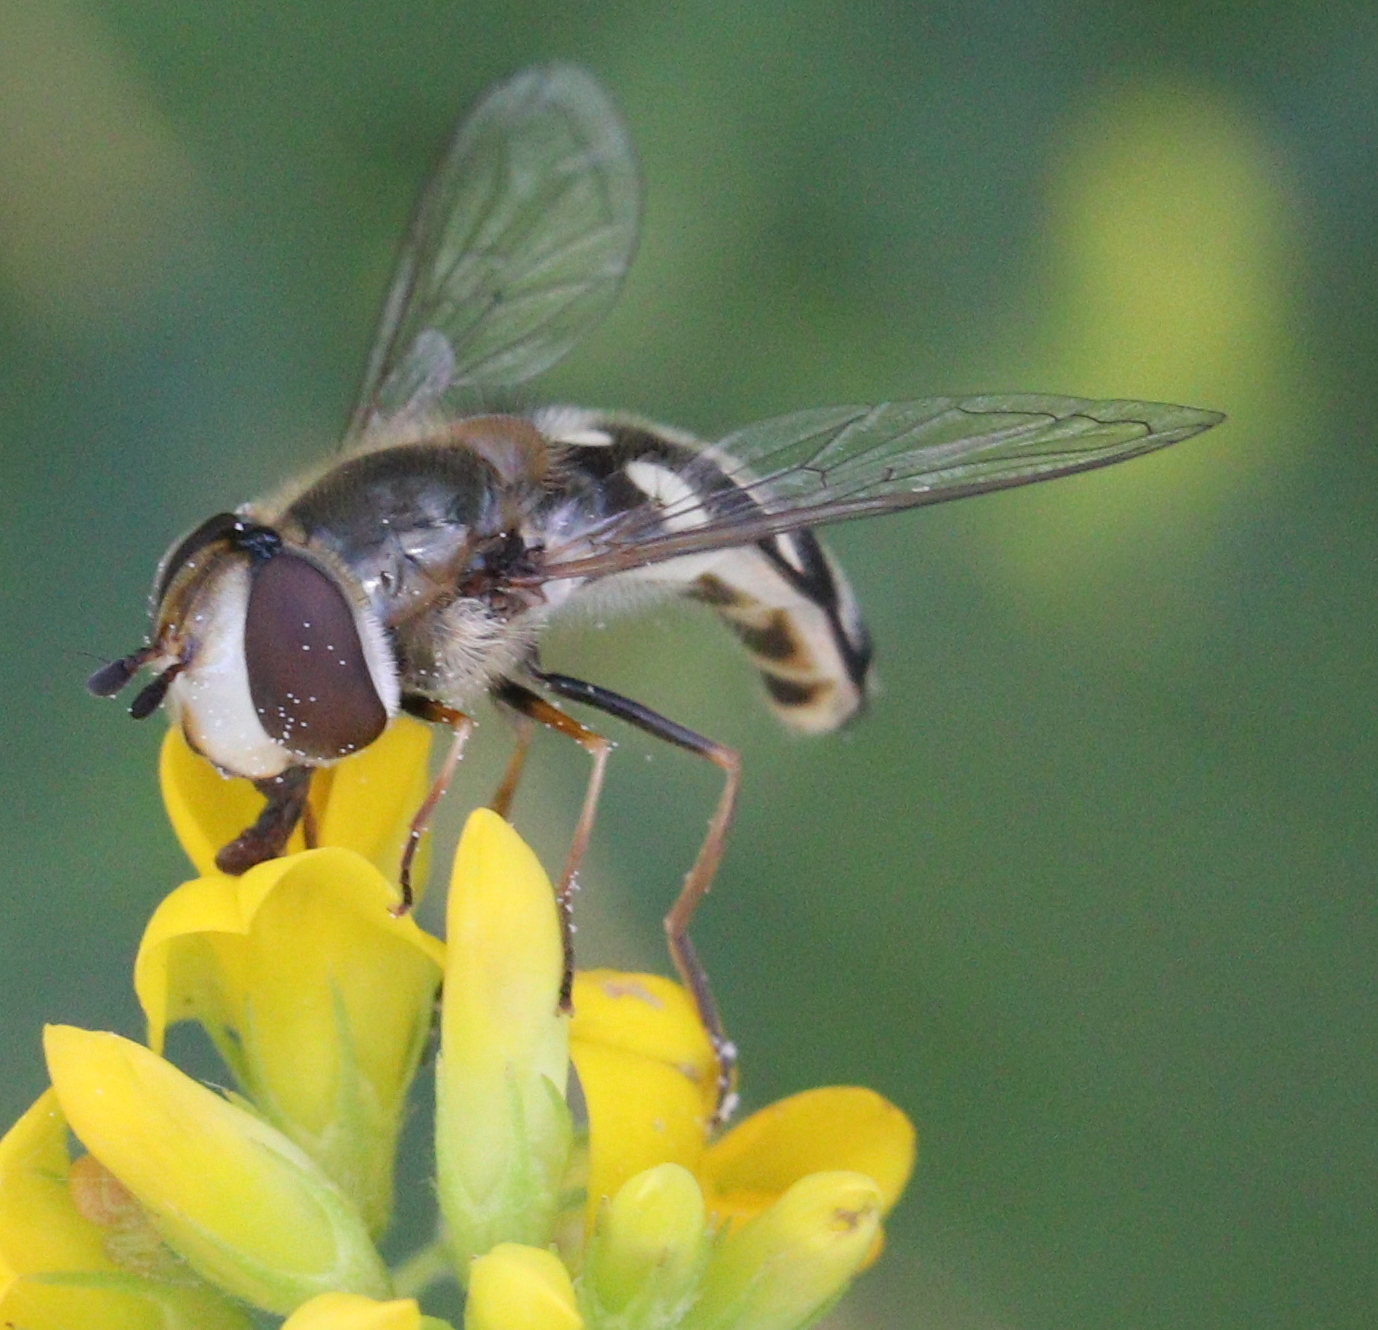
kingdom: Animalia
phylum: Arthropoda
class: Insecta
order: Diptera
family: Syrphidae
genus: Scaeva
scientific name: Scaeva pyrastri
